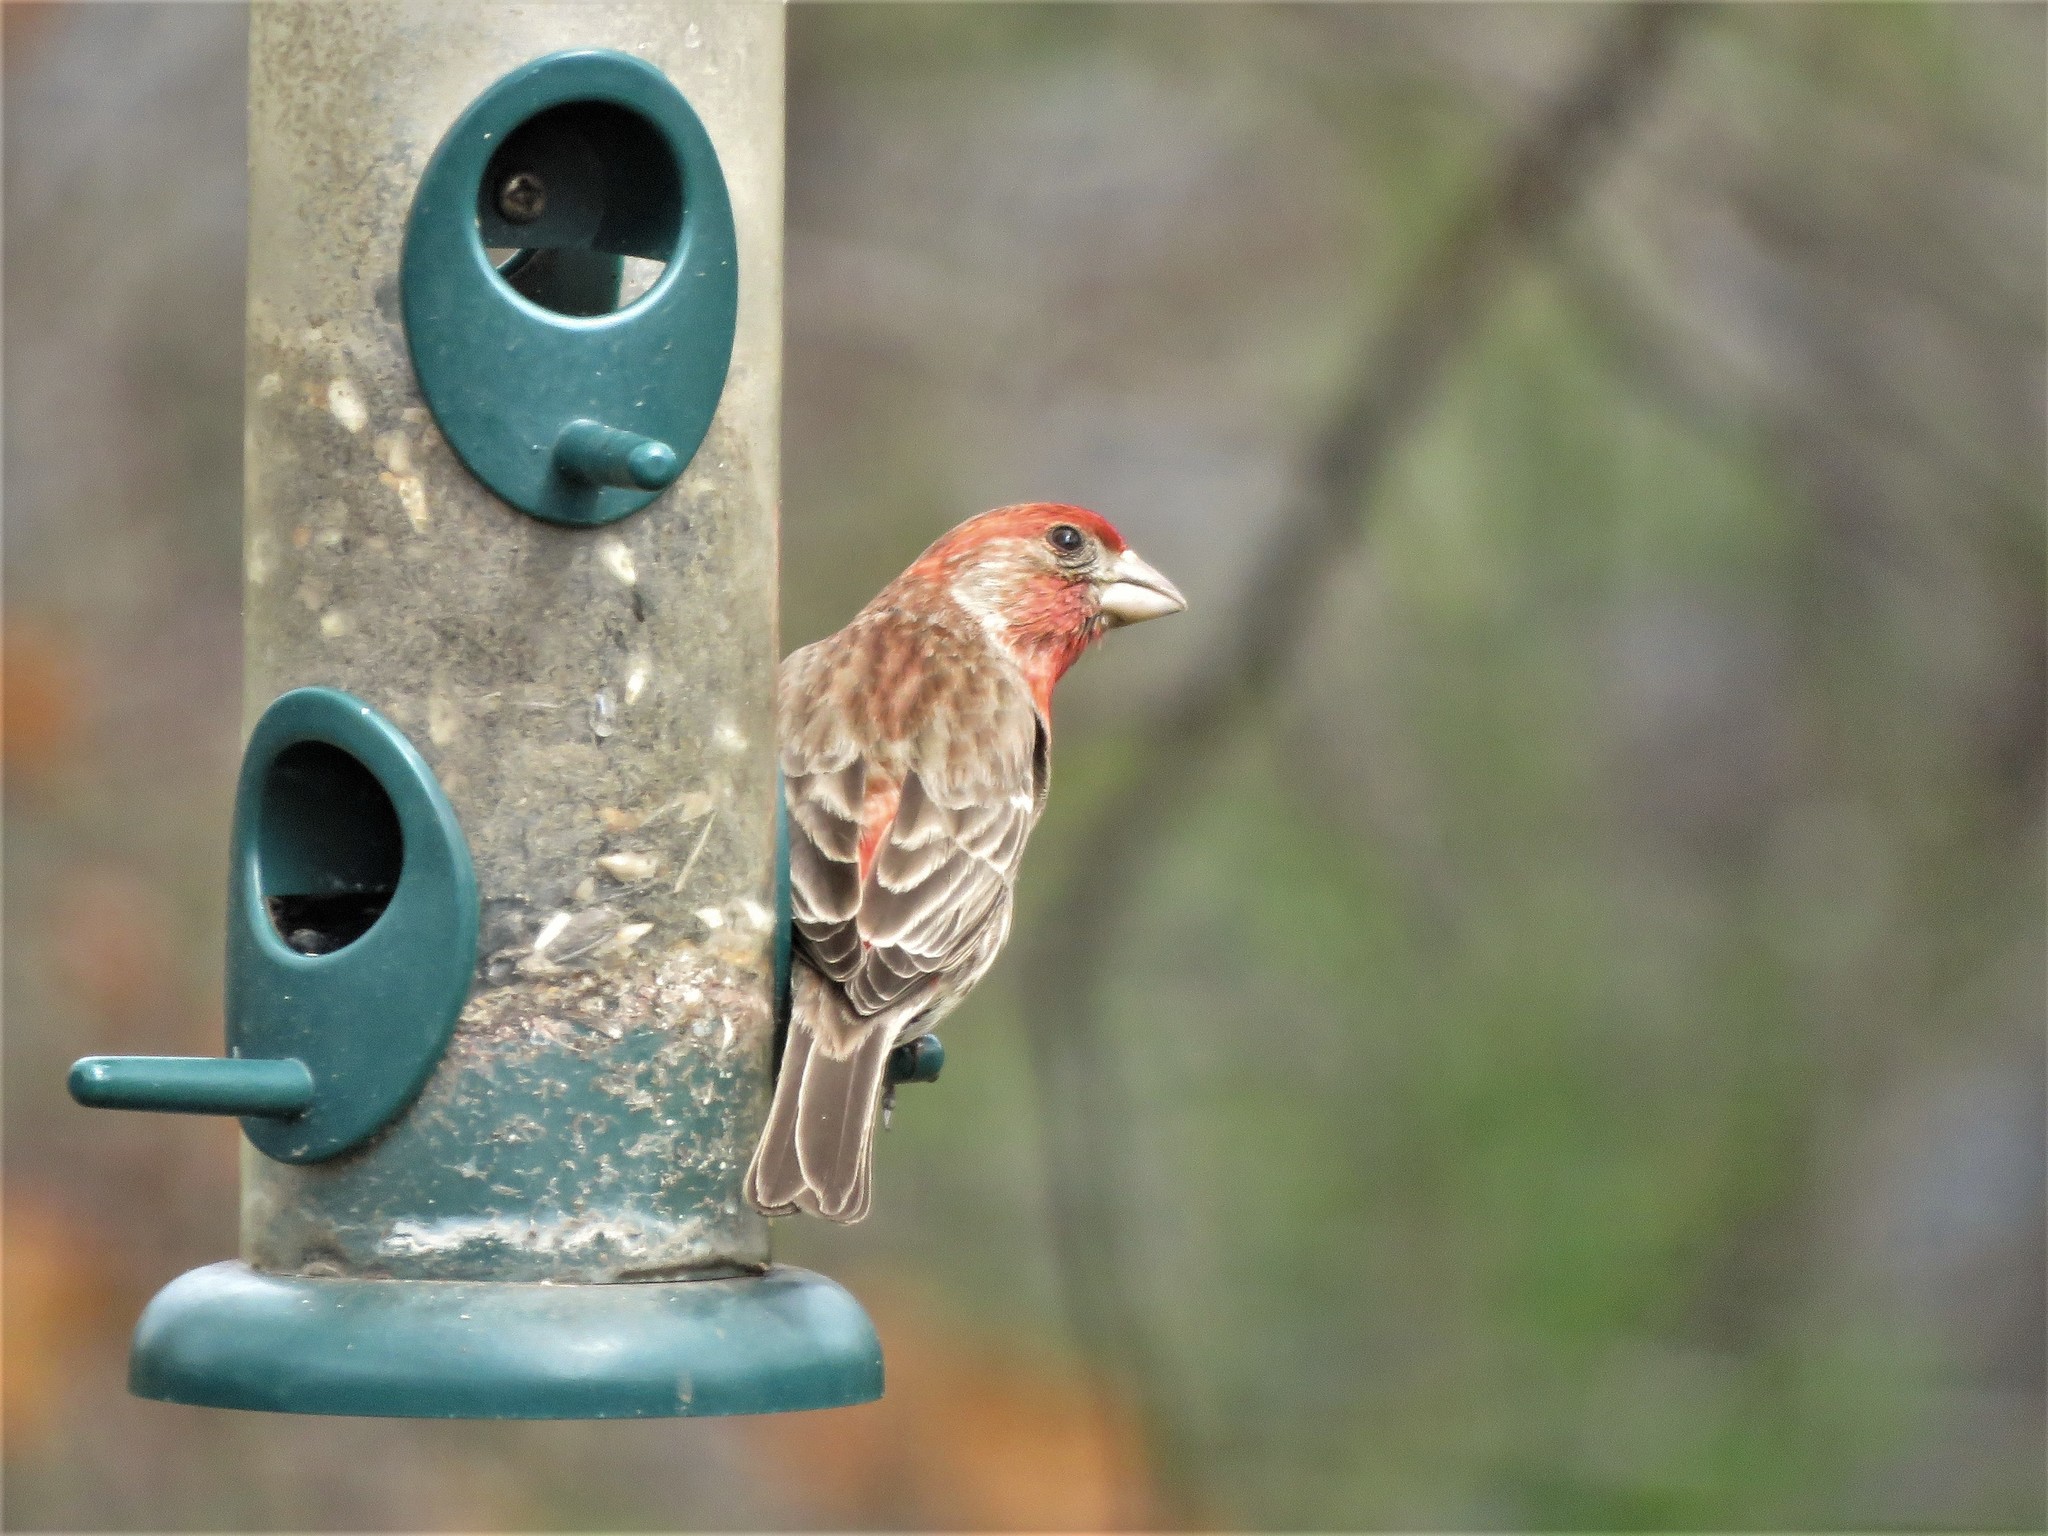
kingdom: Animalia
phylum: Chordata
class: Aves
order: Passeriformes
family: Fringillidae
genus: Haemorhous
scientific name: Haemorhous mexicanus
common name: House finch
